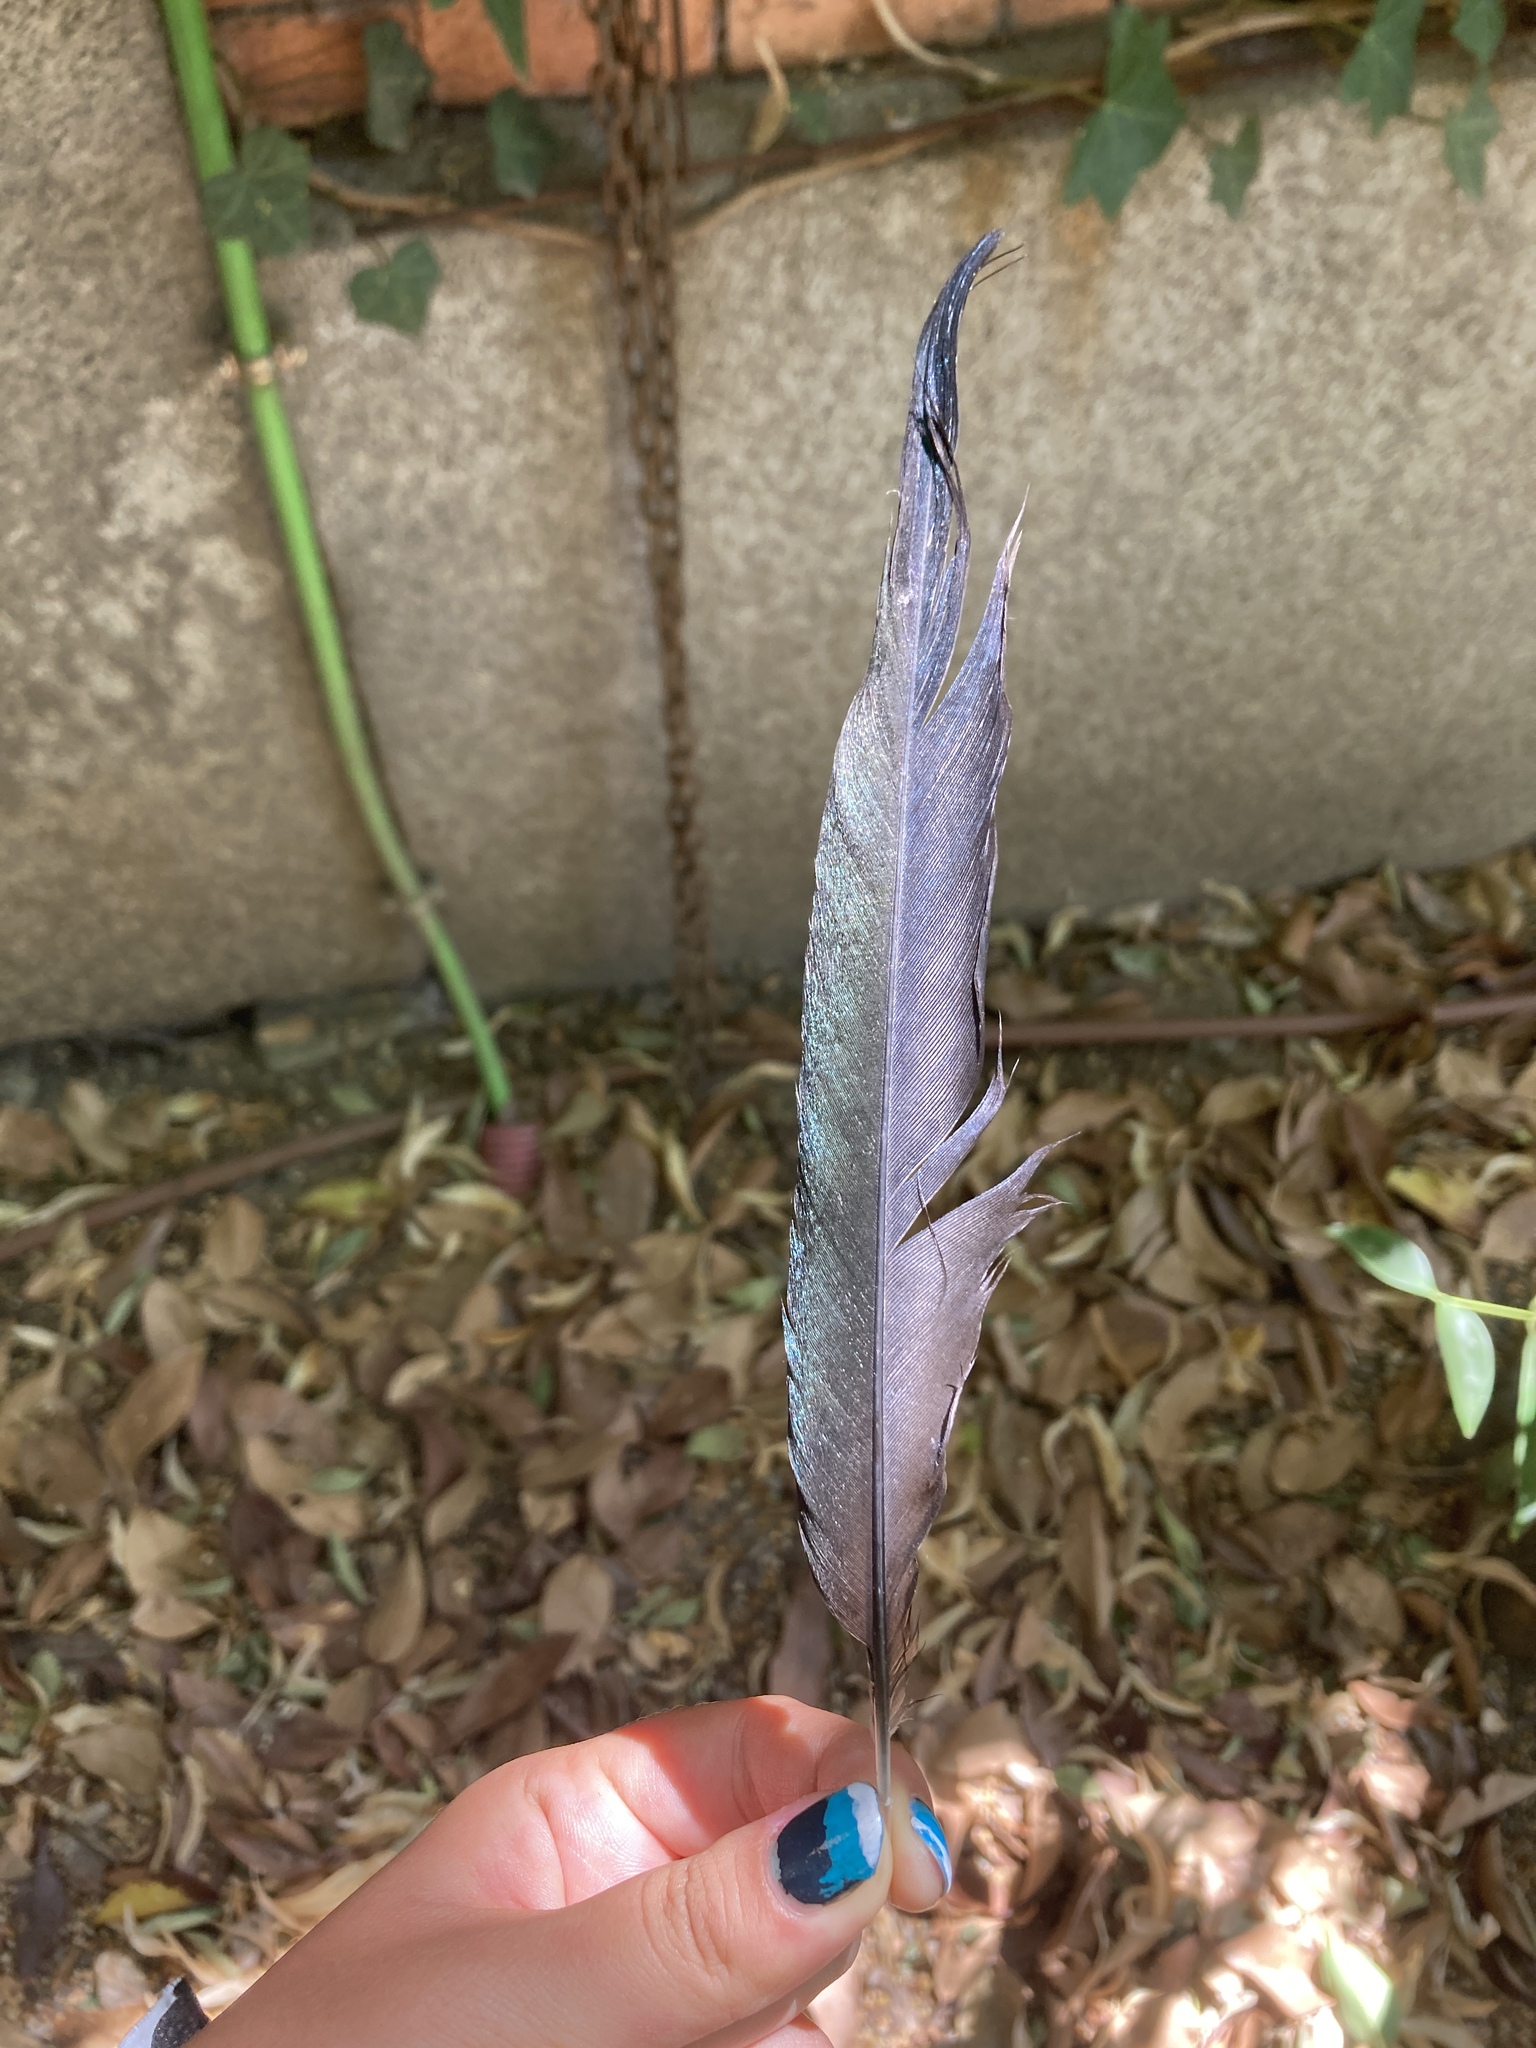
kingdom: Animalia
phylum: Chordata
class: Aves
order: Passeriformes
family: Corvidae
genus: Pica
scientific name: Pica pica
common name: Eurasian magpie
